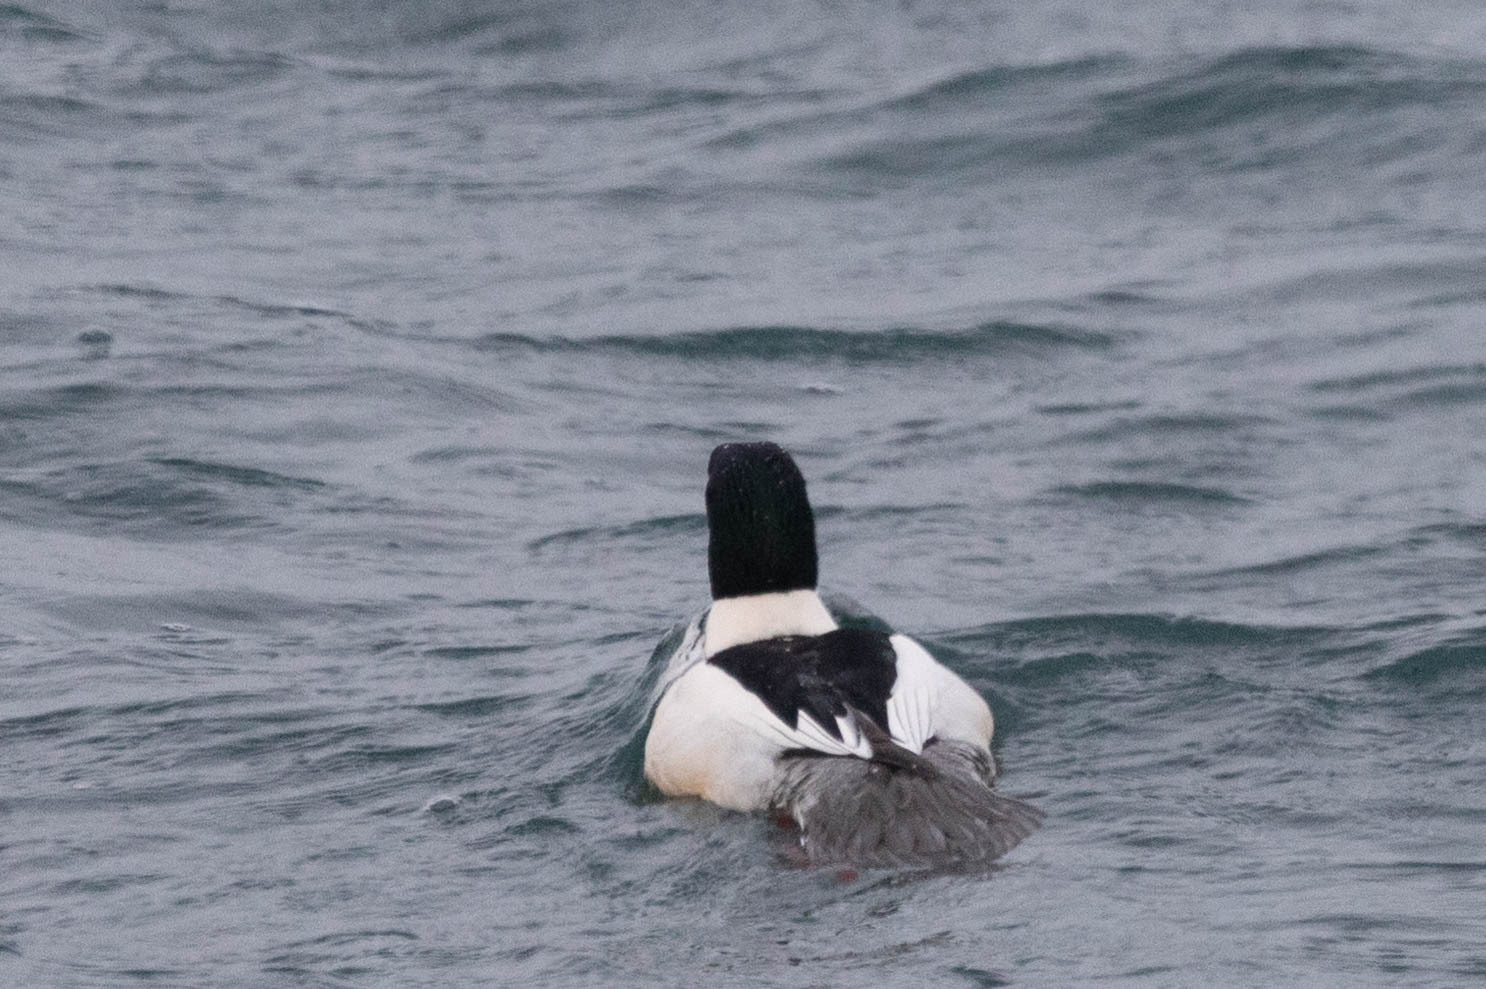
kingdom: Animalia
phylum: Chordata
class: Aves
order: Anseriformes
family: Anatidae
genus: Mergus
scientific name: Mergus merganser
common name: Common merganser
